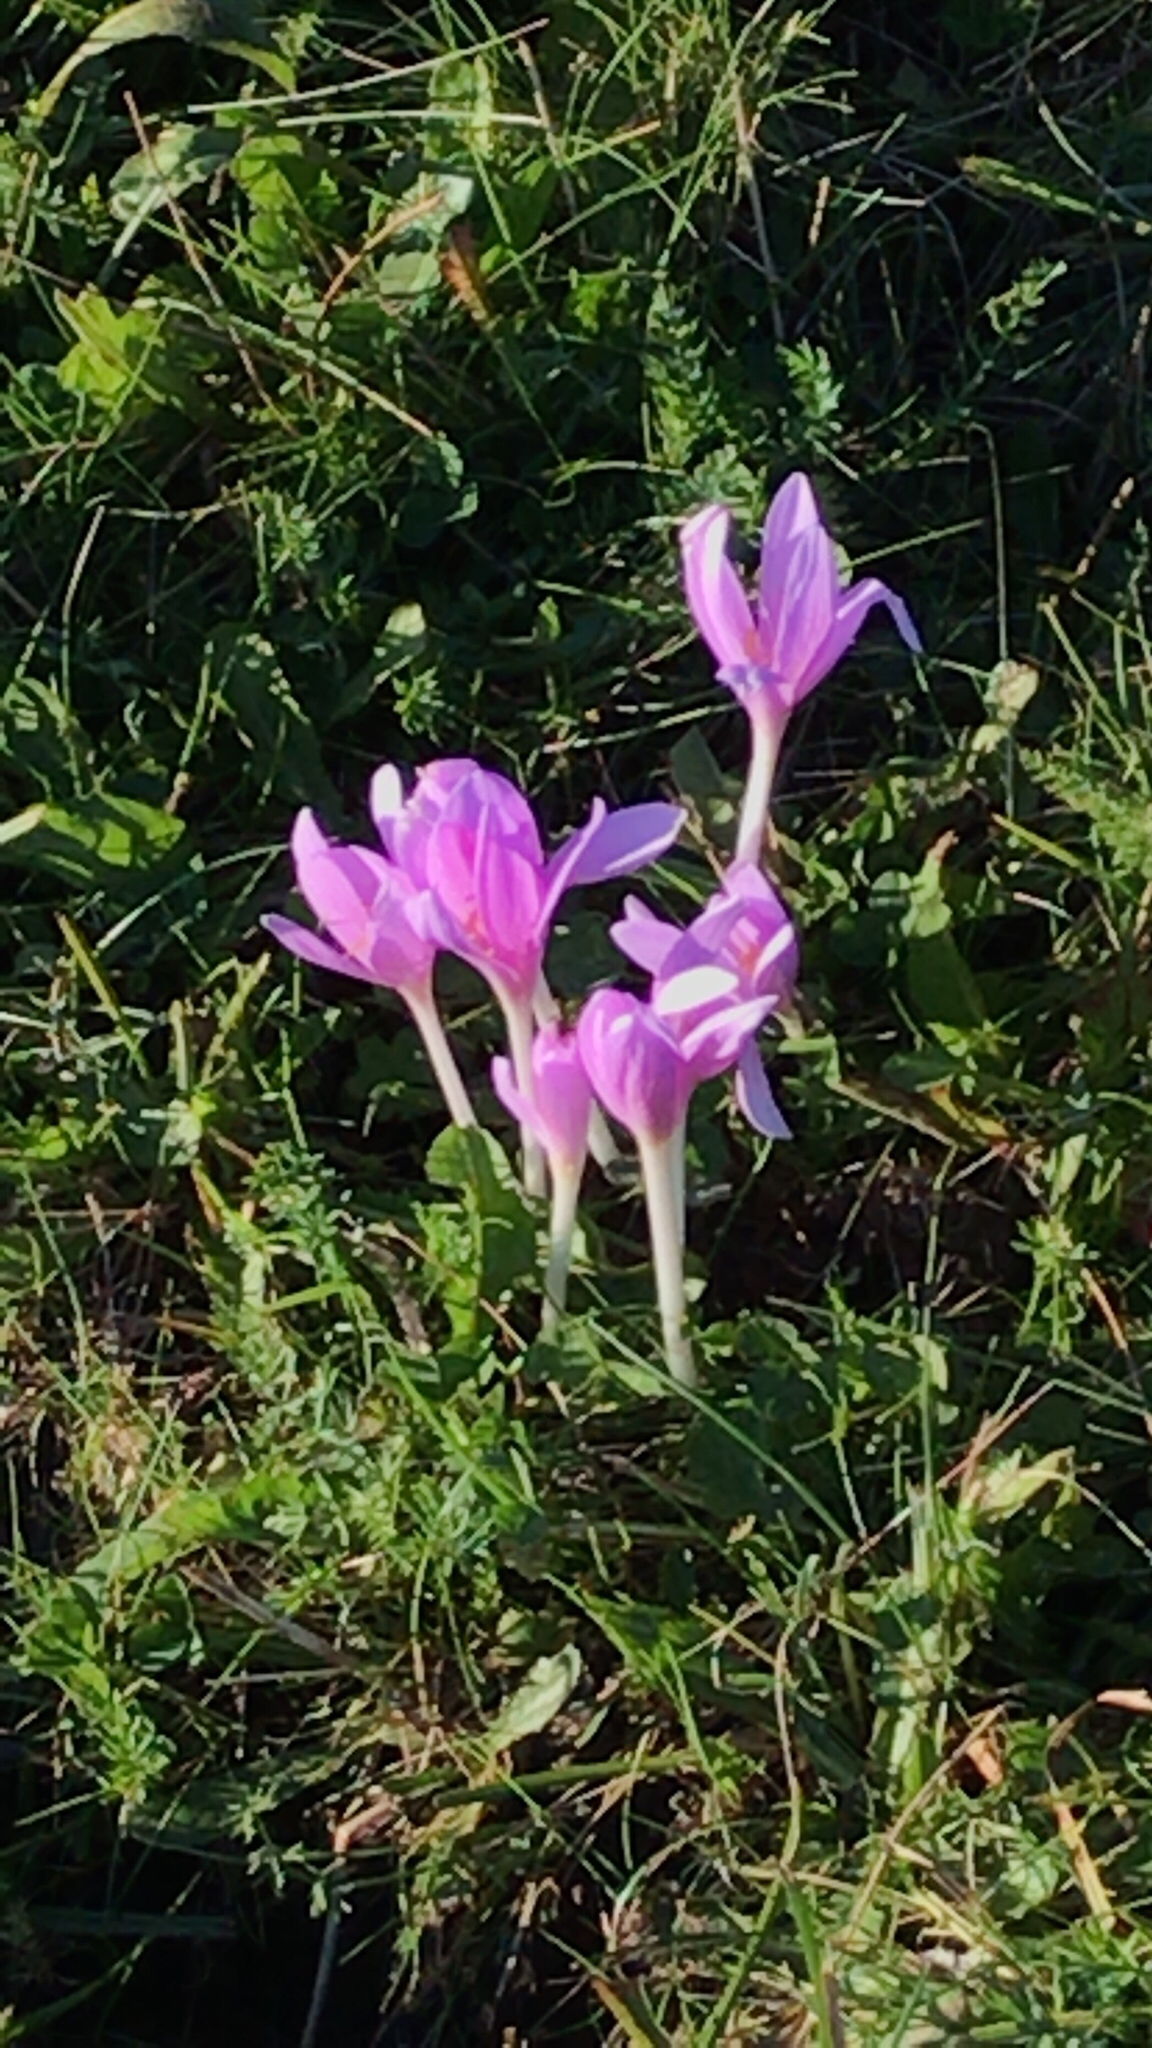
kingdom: Plantae
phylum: Tracheophyta
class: Liliopsida
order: Liliales
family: Colchicaceae
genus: Colchicum
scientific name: Colchicum autumnale
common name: Autumn crocus
